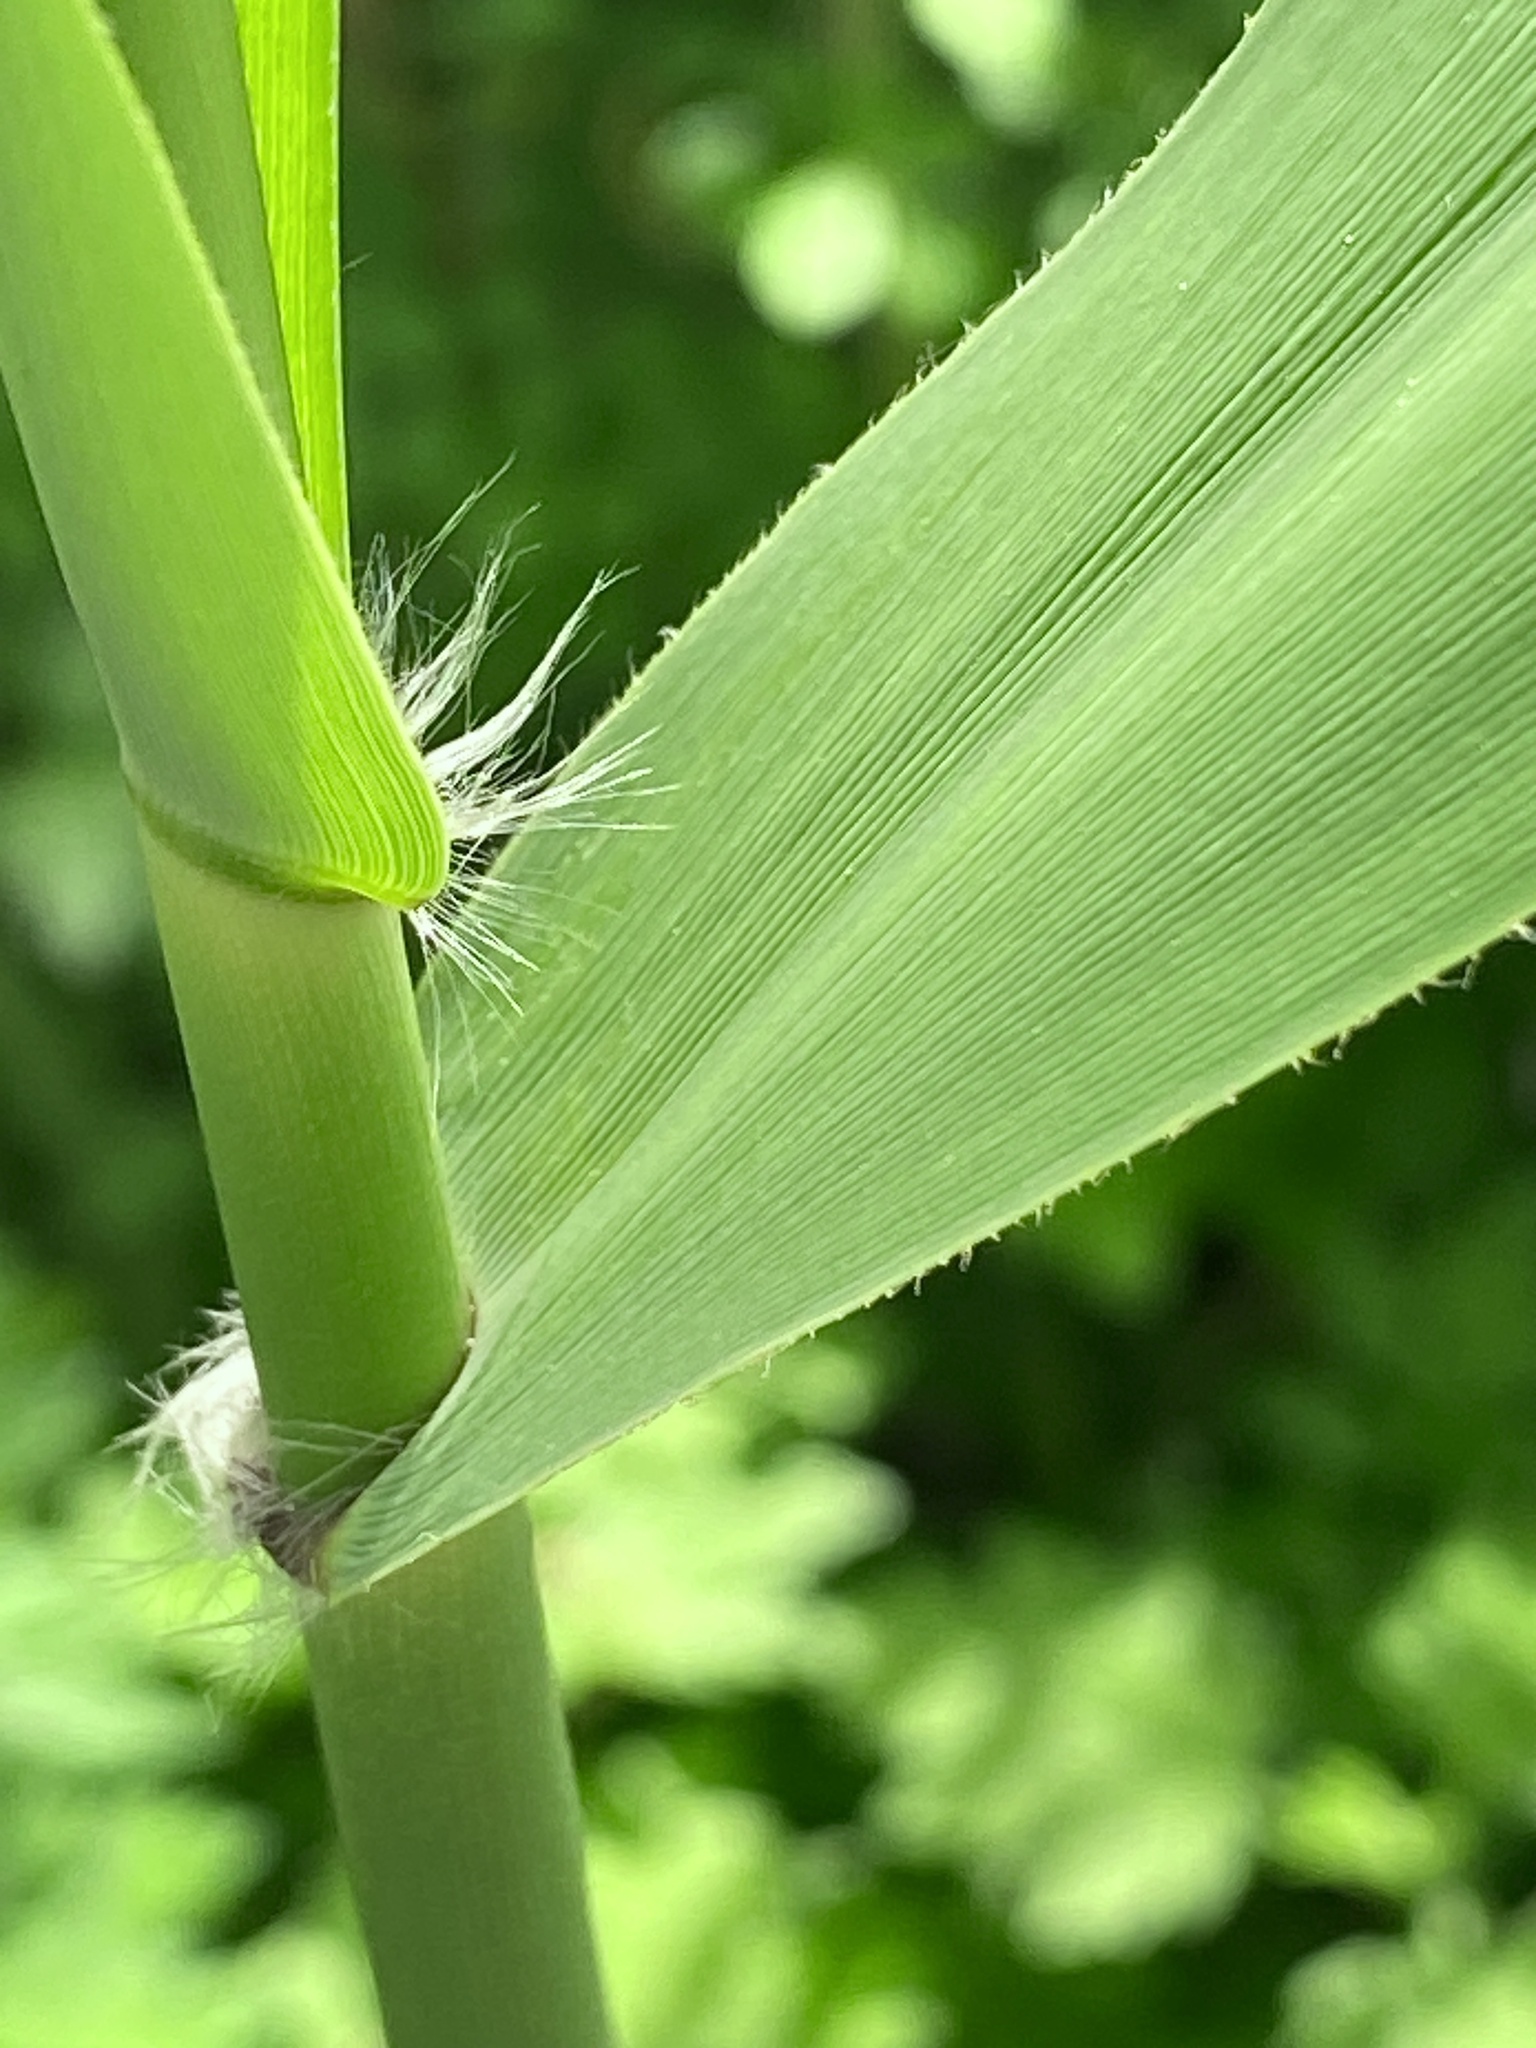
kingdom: Plantae
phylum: Tracheophyta
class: Liliopsida
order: Poales
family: Poaceae
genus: Phragmites
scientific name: Phragmites australis
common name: Common reed
